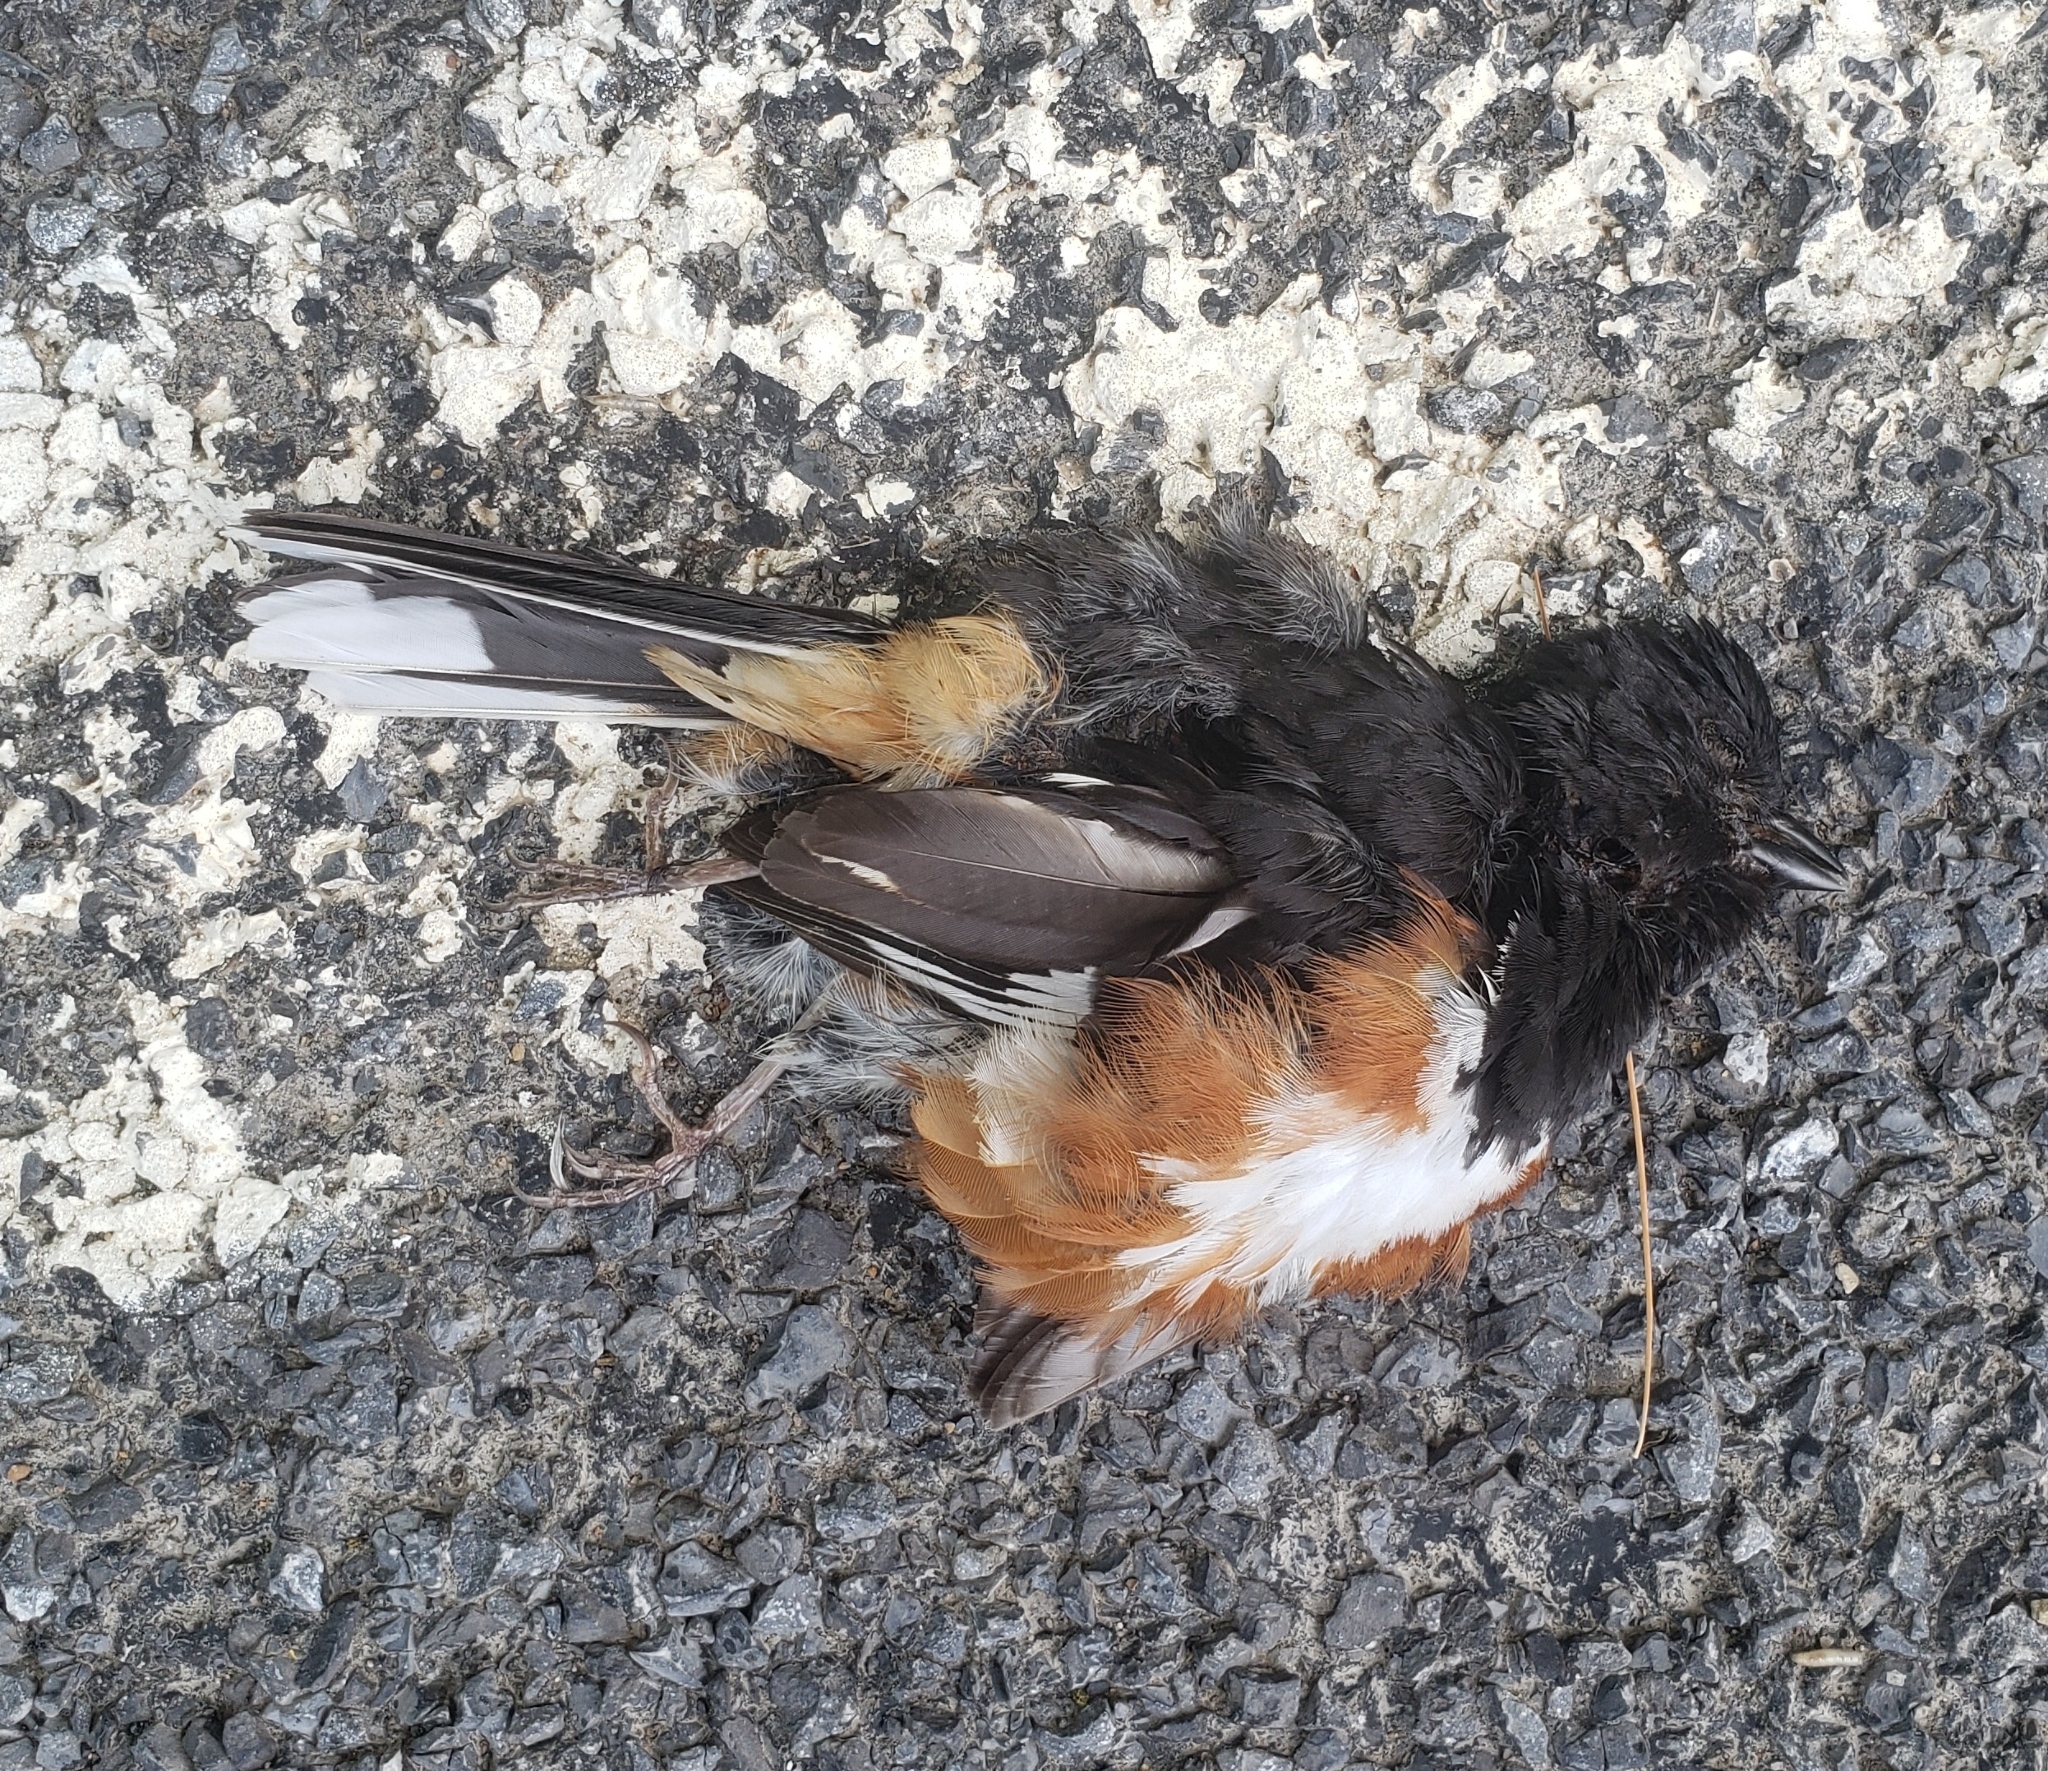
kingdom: Animalia
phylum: Chordata
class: Aves
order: Passeriformes
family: Passerellidae
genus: Pipilo
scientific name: Pipilo erythrophthalmus
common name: Eastern towhee
